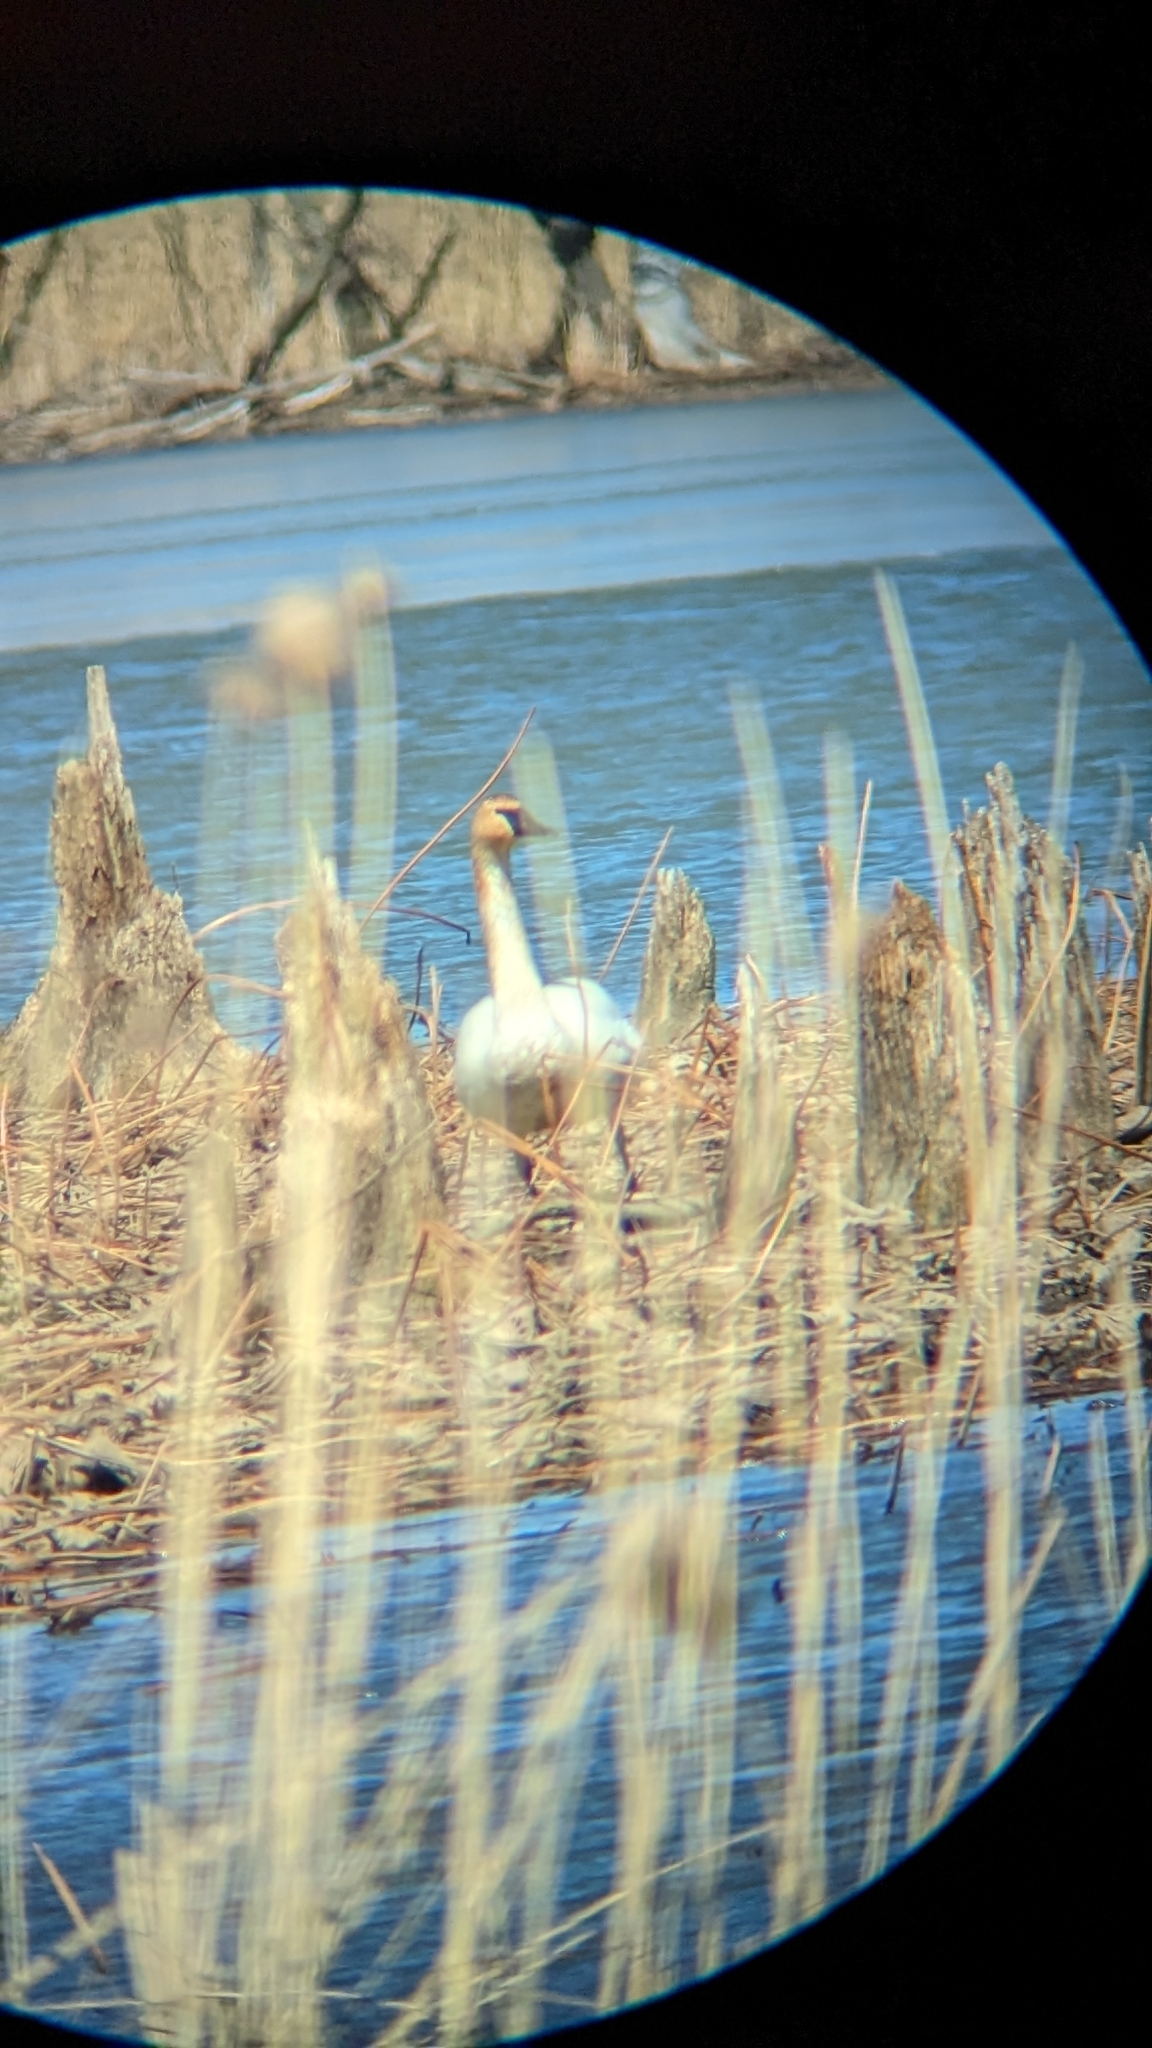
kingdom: Animalia
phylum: Chordata
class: Aves
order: Anseriformes
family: Anatidae
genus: Cygnus
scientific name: Cygnus buccinator
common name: Trumpeter swan
